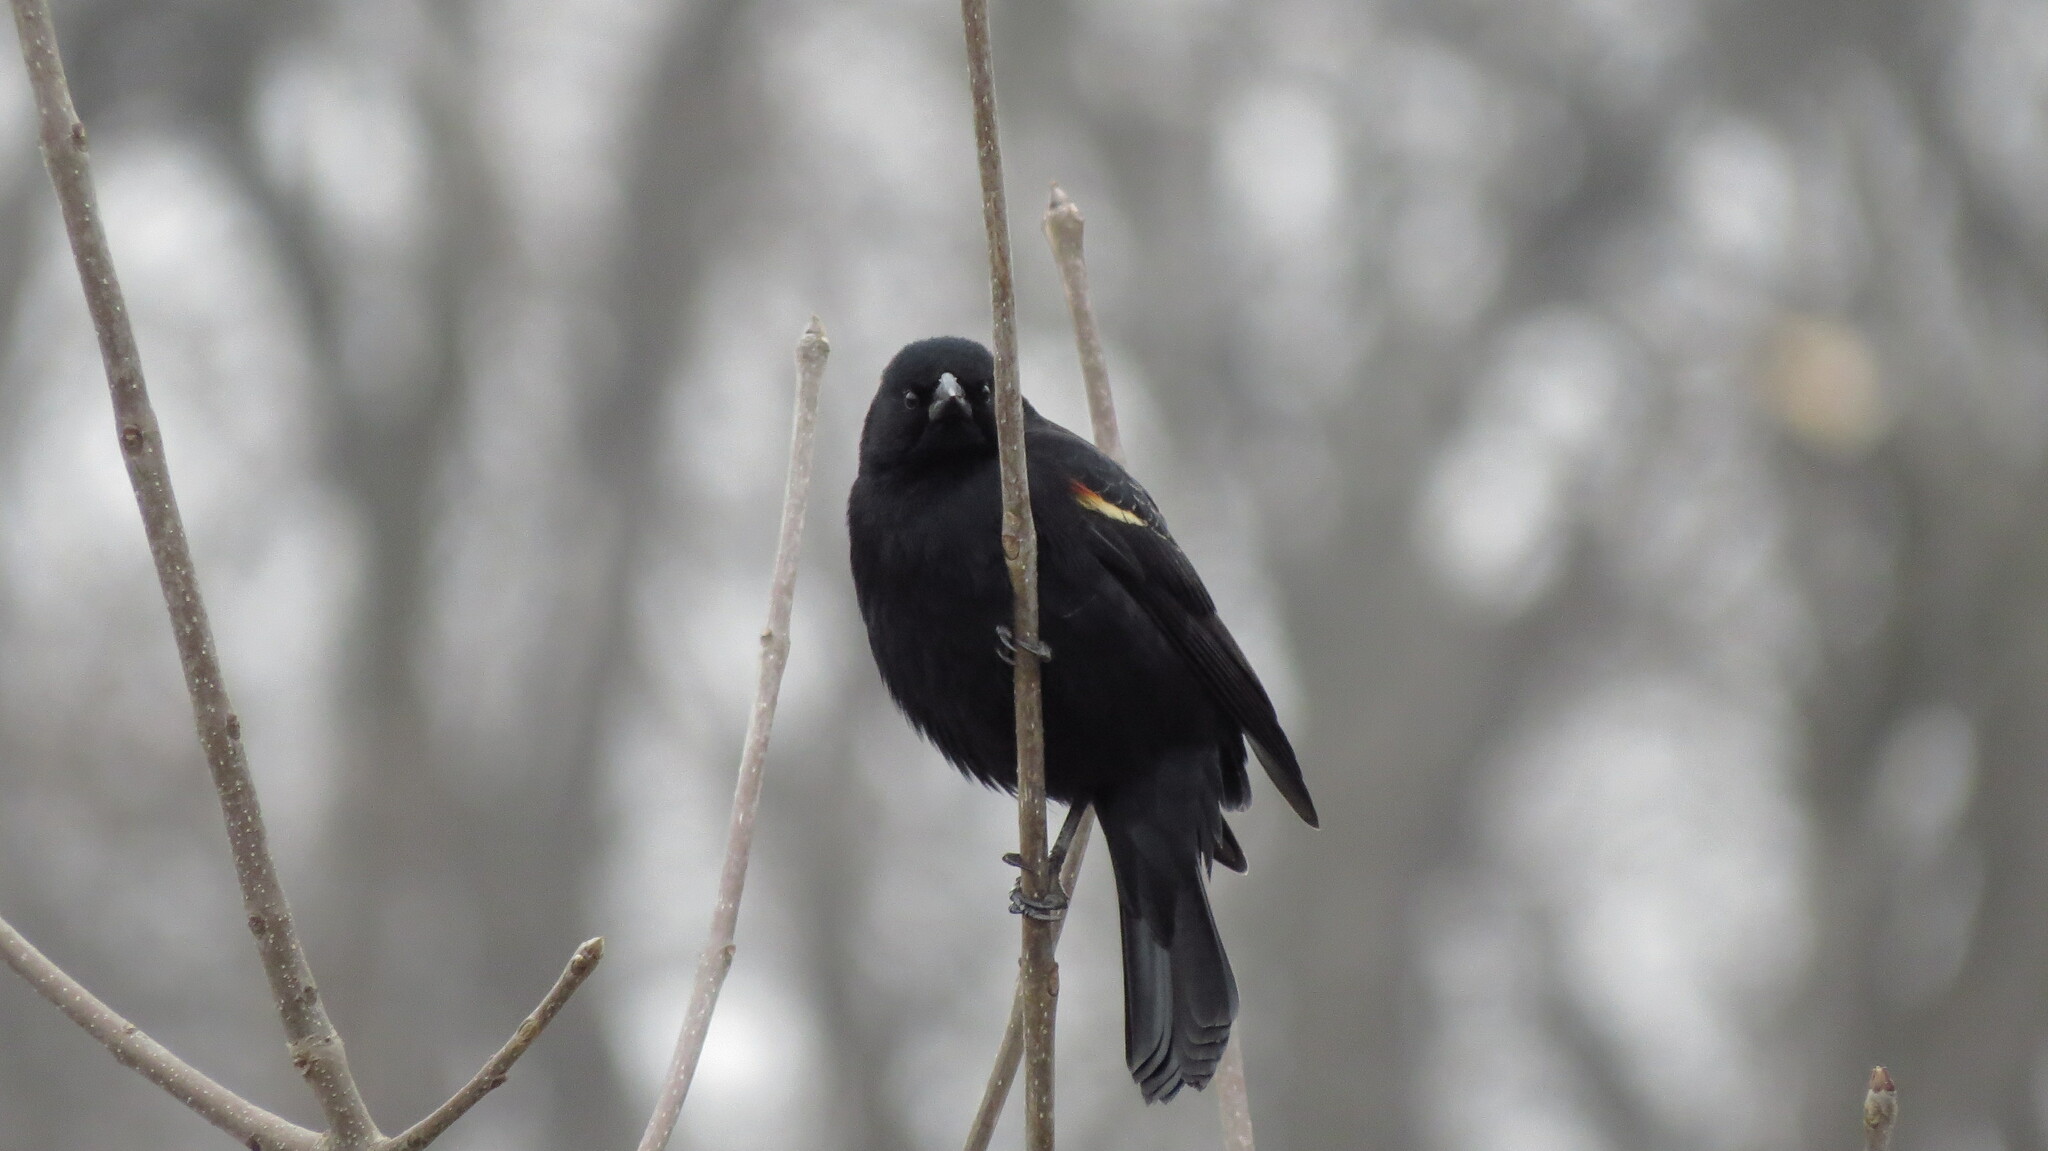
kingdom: Animalia
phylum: Chordata
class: Aves
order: Passeriformes
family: Icteridae
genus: Agelaius
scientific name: Agelaius phoeniceus
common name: Red-winged blackbird
